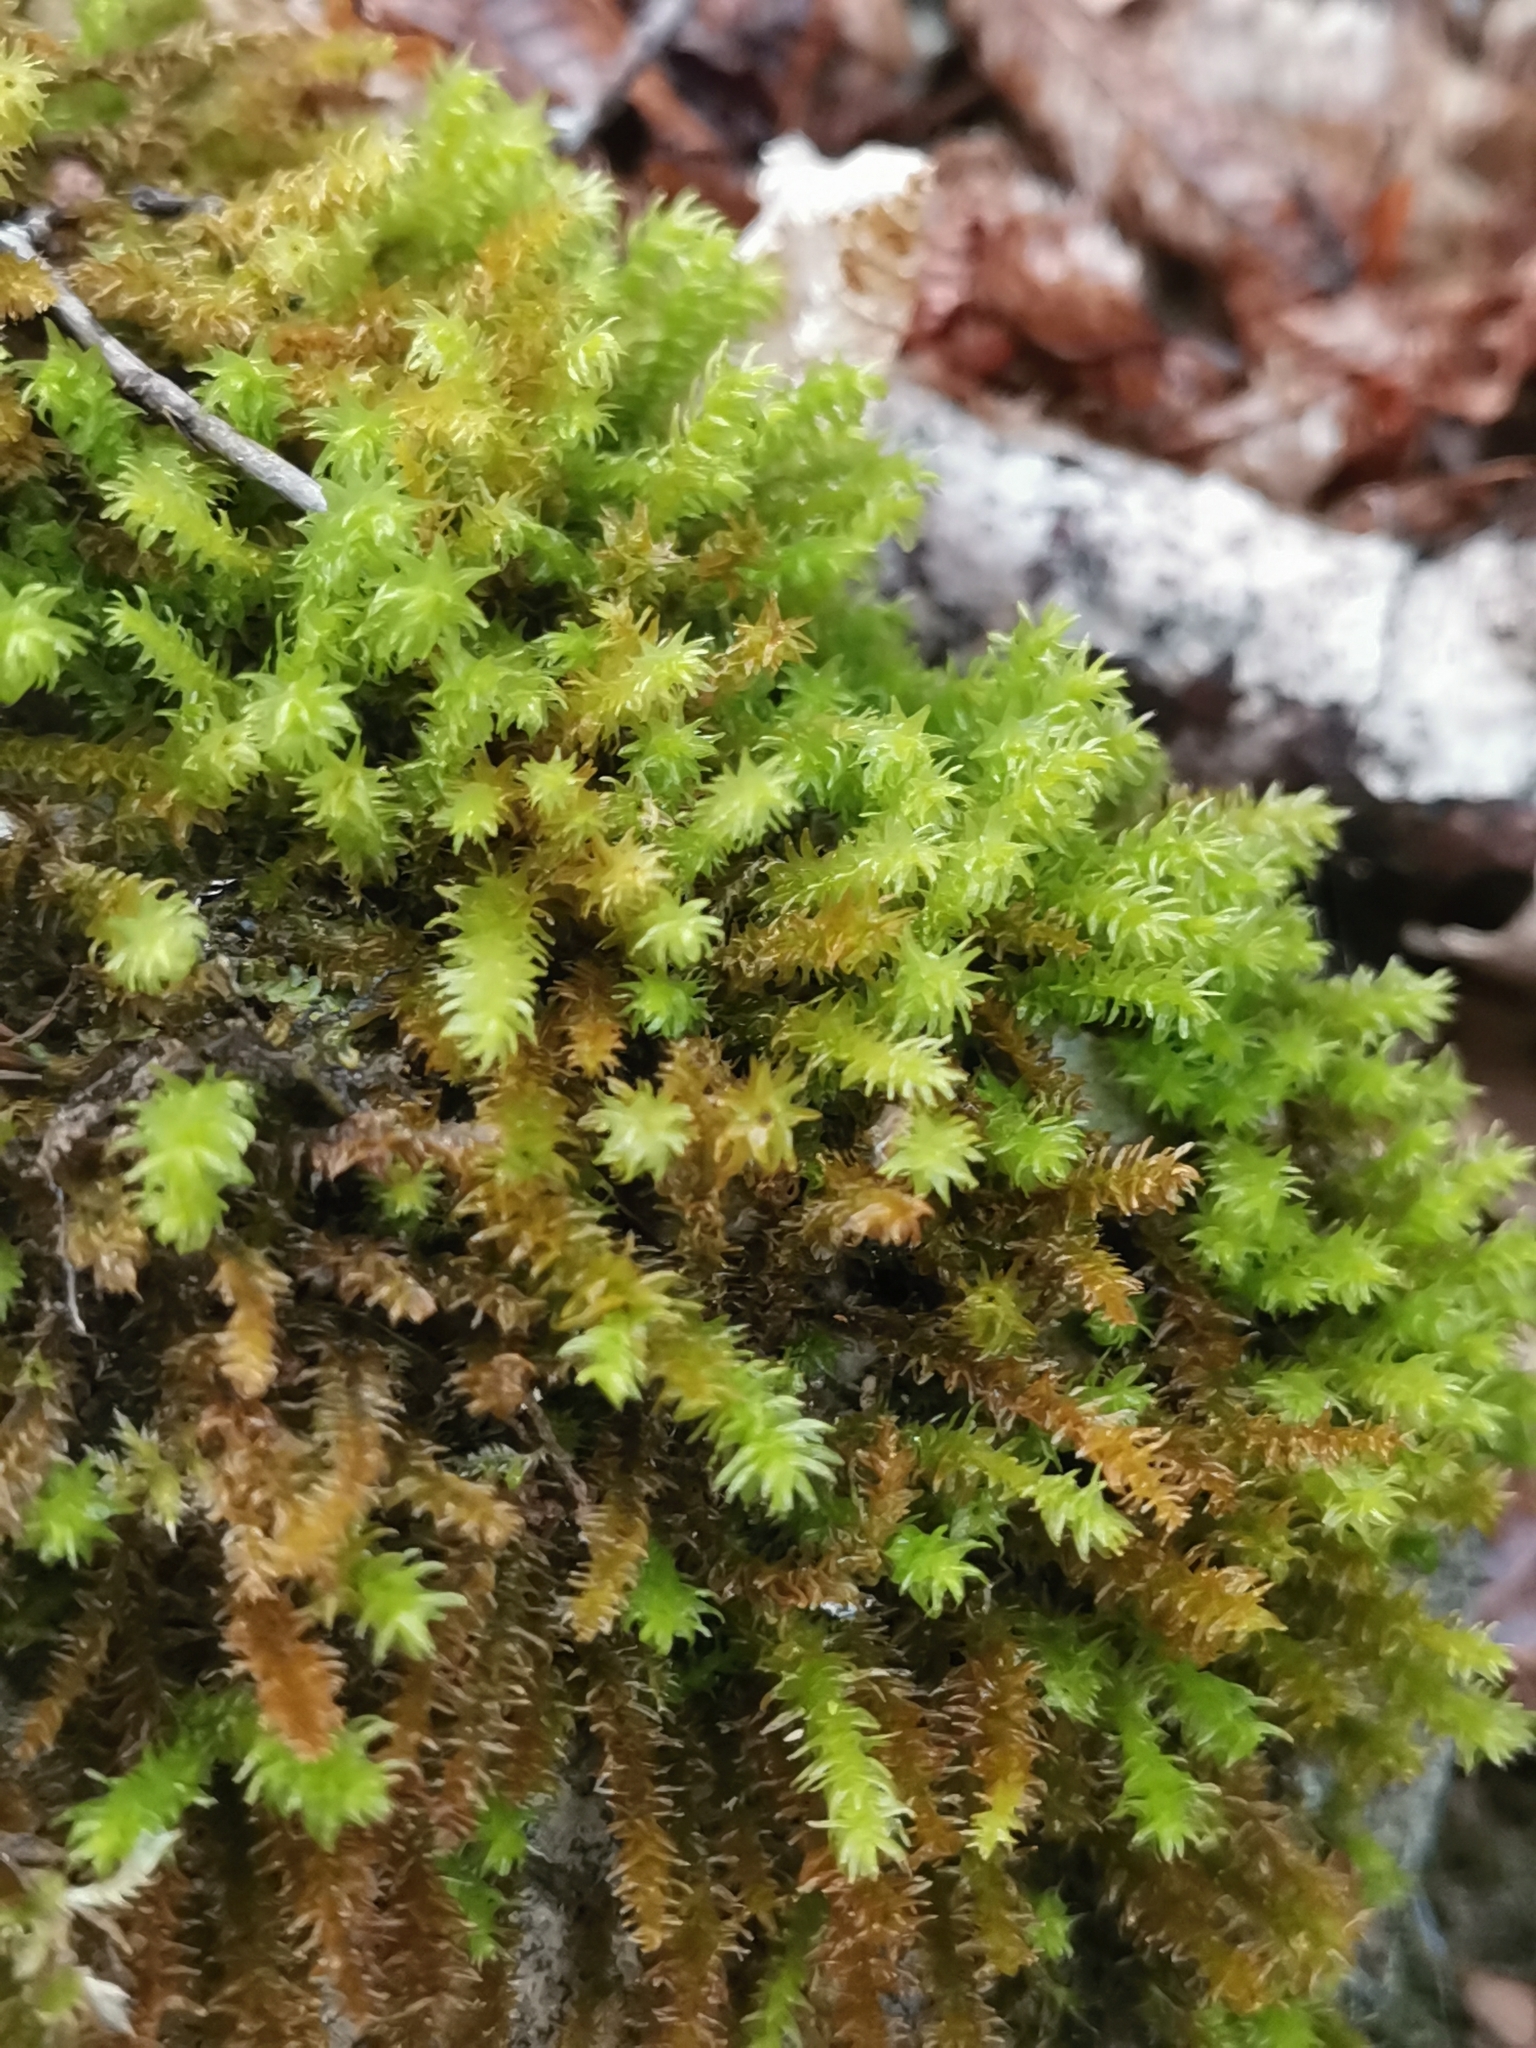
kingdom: Plantae
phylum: Bryophyta
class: Bryopsida
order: Hypnales
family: Anomodontaceae
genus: Anomodon
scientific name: Anomodon viticulosus
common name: Tall anomodon
